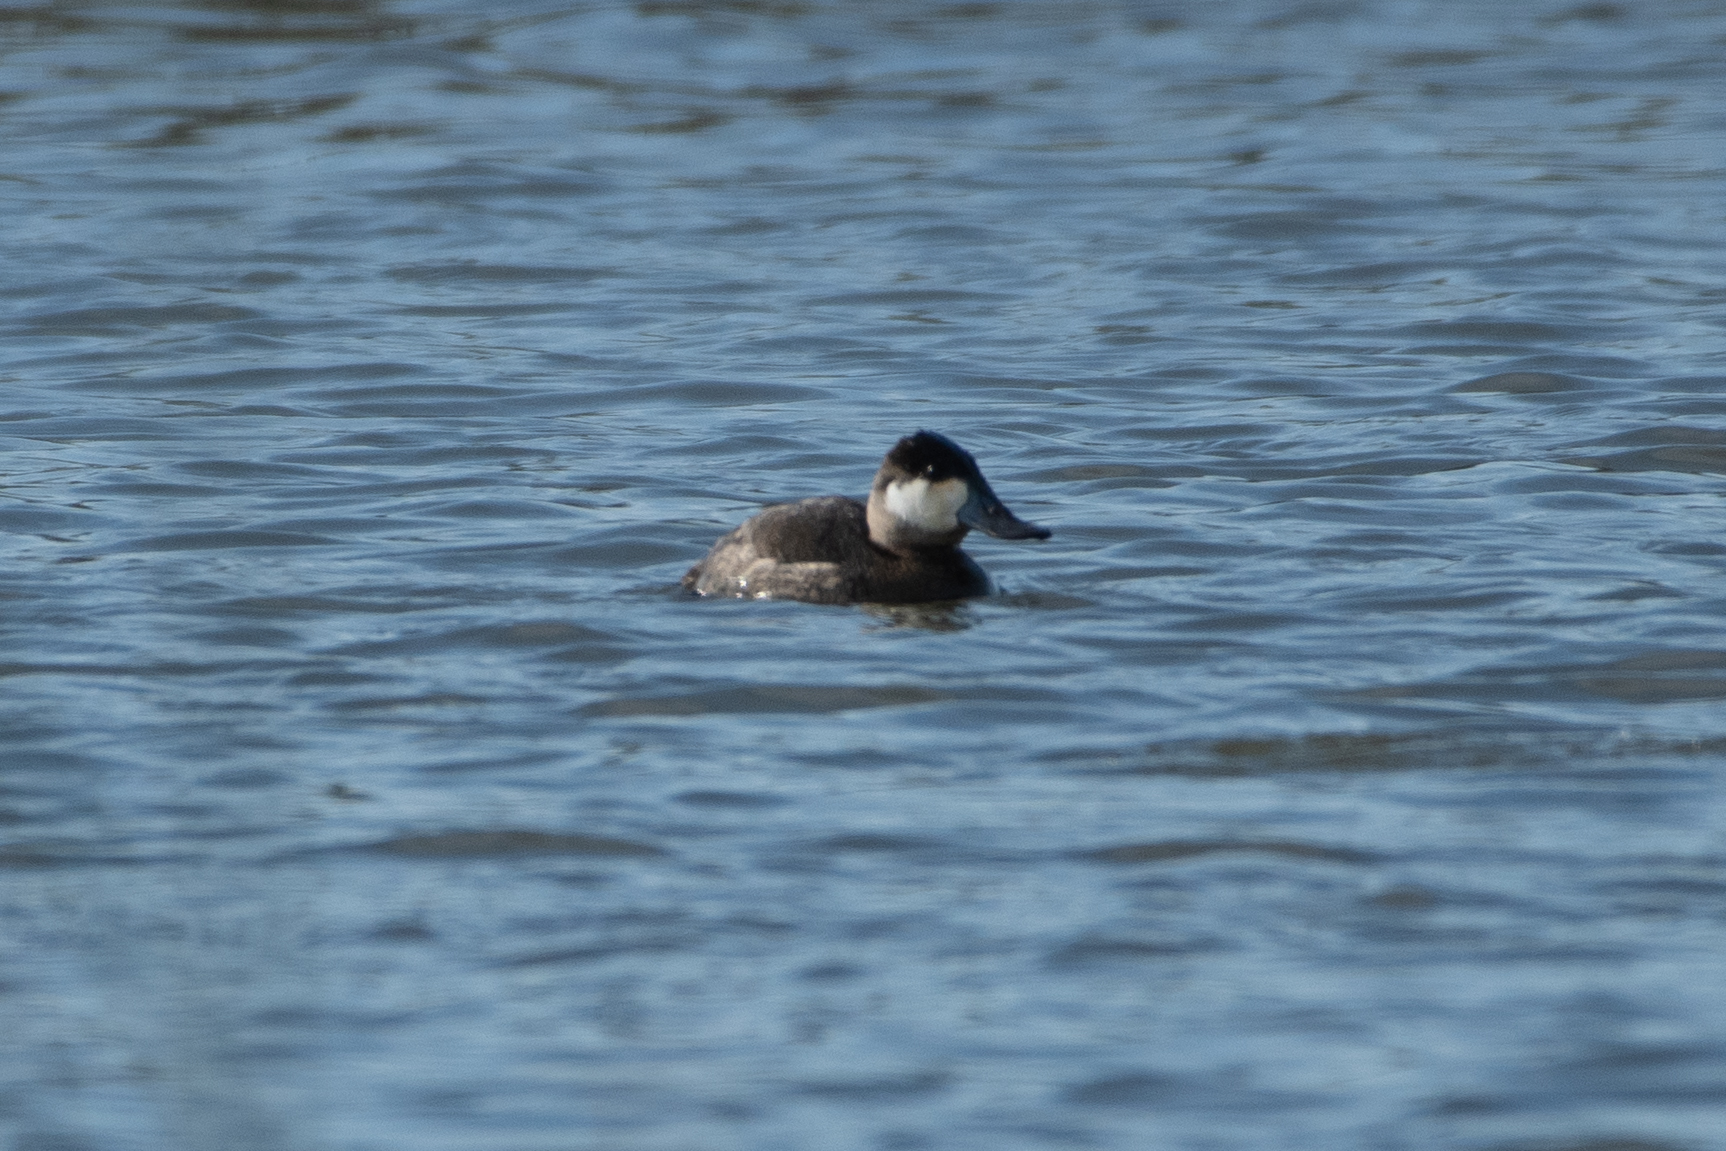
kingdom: Animalia
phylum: Chordata
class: Aves
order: Anseriformes
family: Anatidae
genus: Oxyura
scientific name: Oxyura jamaicensis
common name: Ruddy duck
